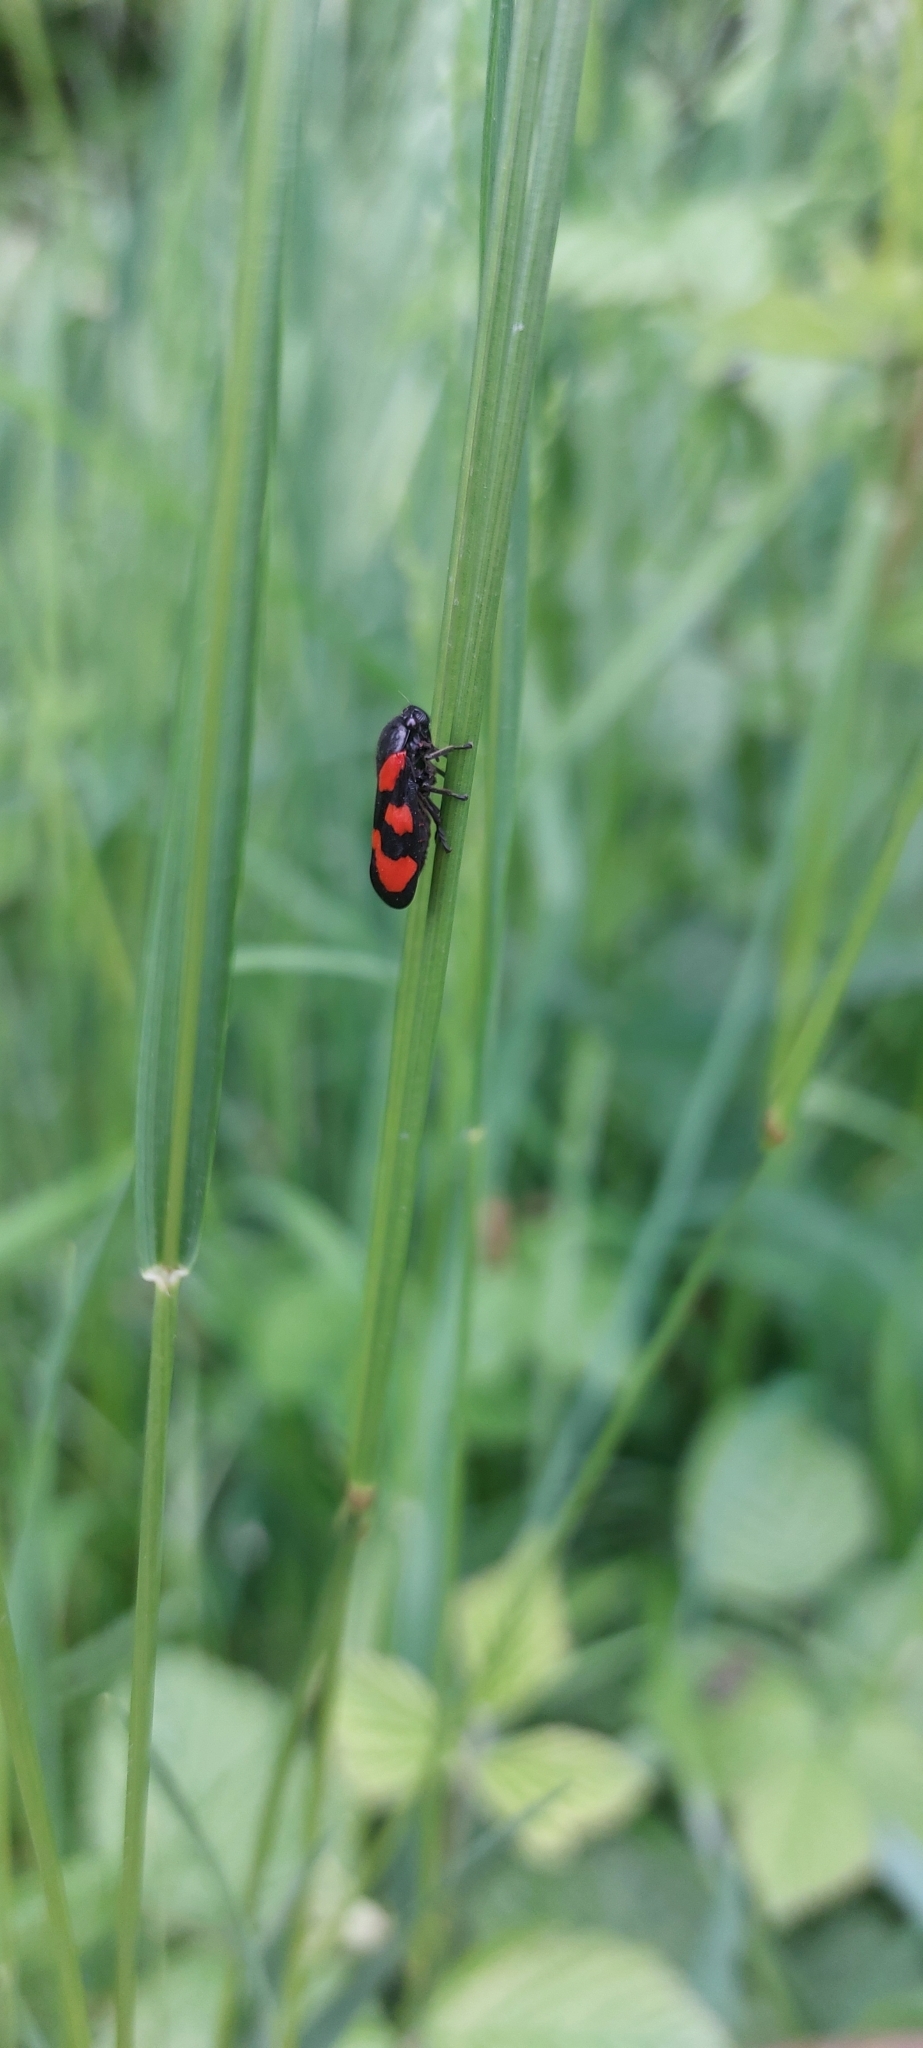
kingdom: Animalia
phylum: Arthropoda
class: Insecta
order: Hemiptera
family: Cercopidae
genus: Cercopis
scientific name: Cercopis vulnerata
